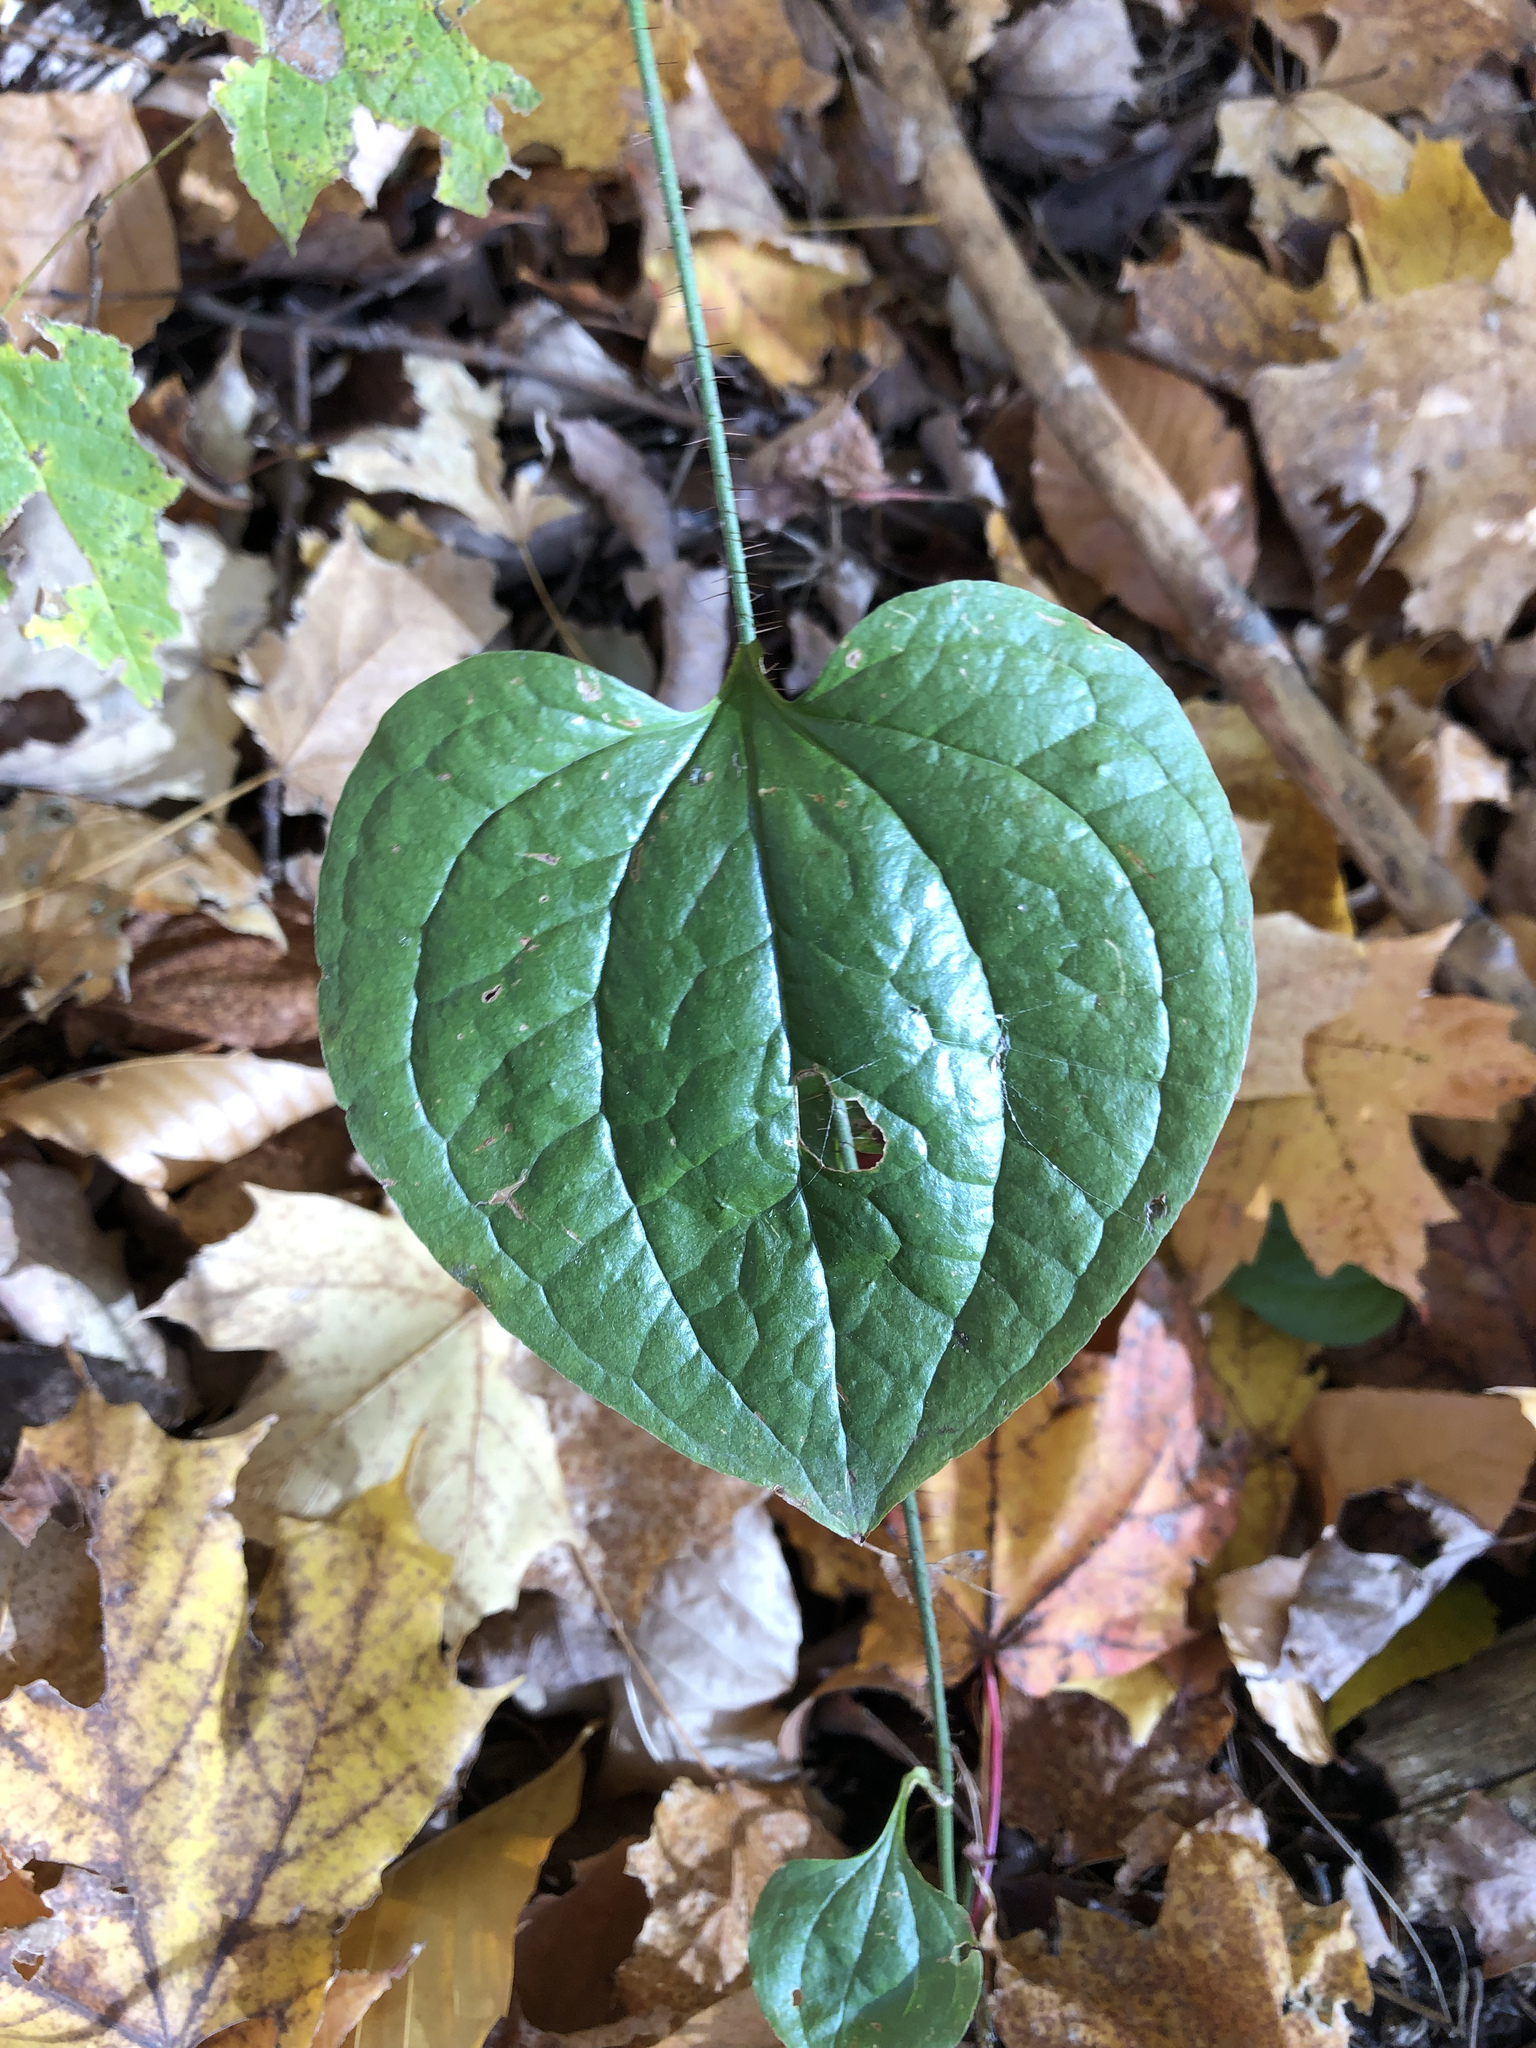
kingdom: Plantae
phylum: Tracheophyta
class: Liliopsida
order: Liliales
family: Smilacaceae
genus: Smilax
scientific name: Smilax tamnoides
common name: Hellfetter
